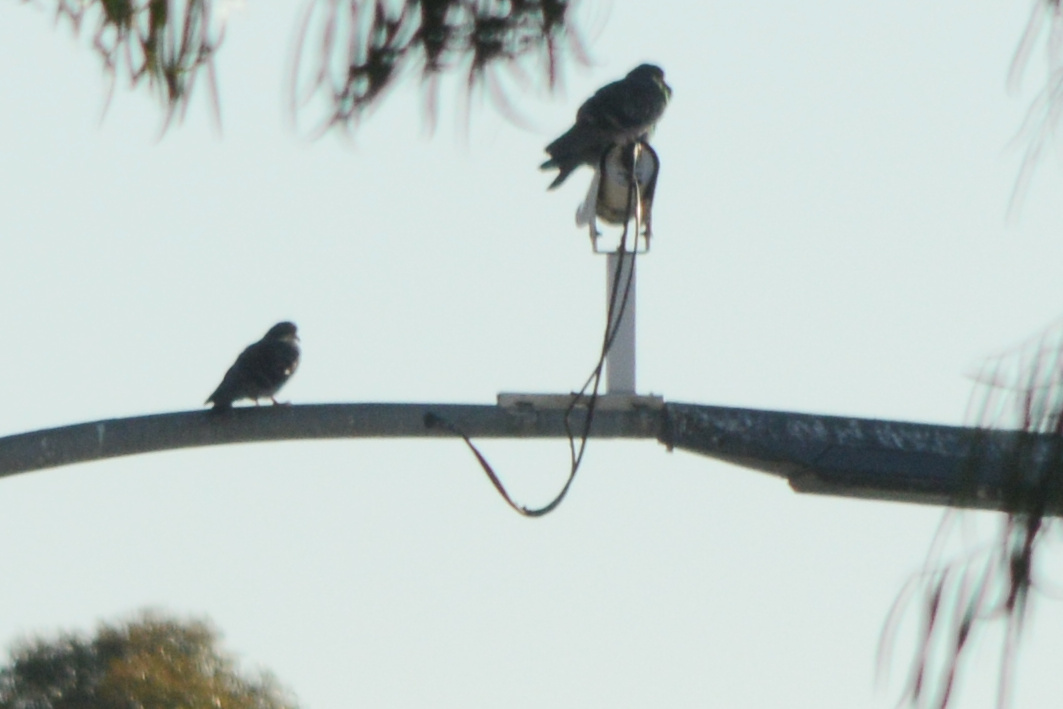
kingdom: Animalia
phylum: Chordata
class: Aves
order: Columbiformes
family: Columbidae
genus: Columba
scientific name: Columba livia
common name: Rock pigeon
